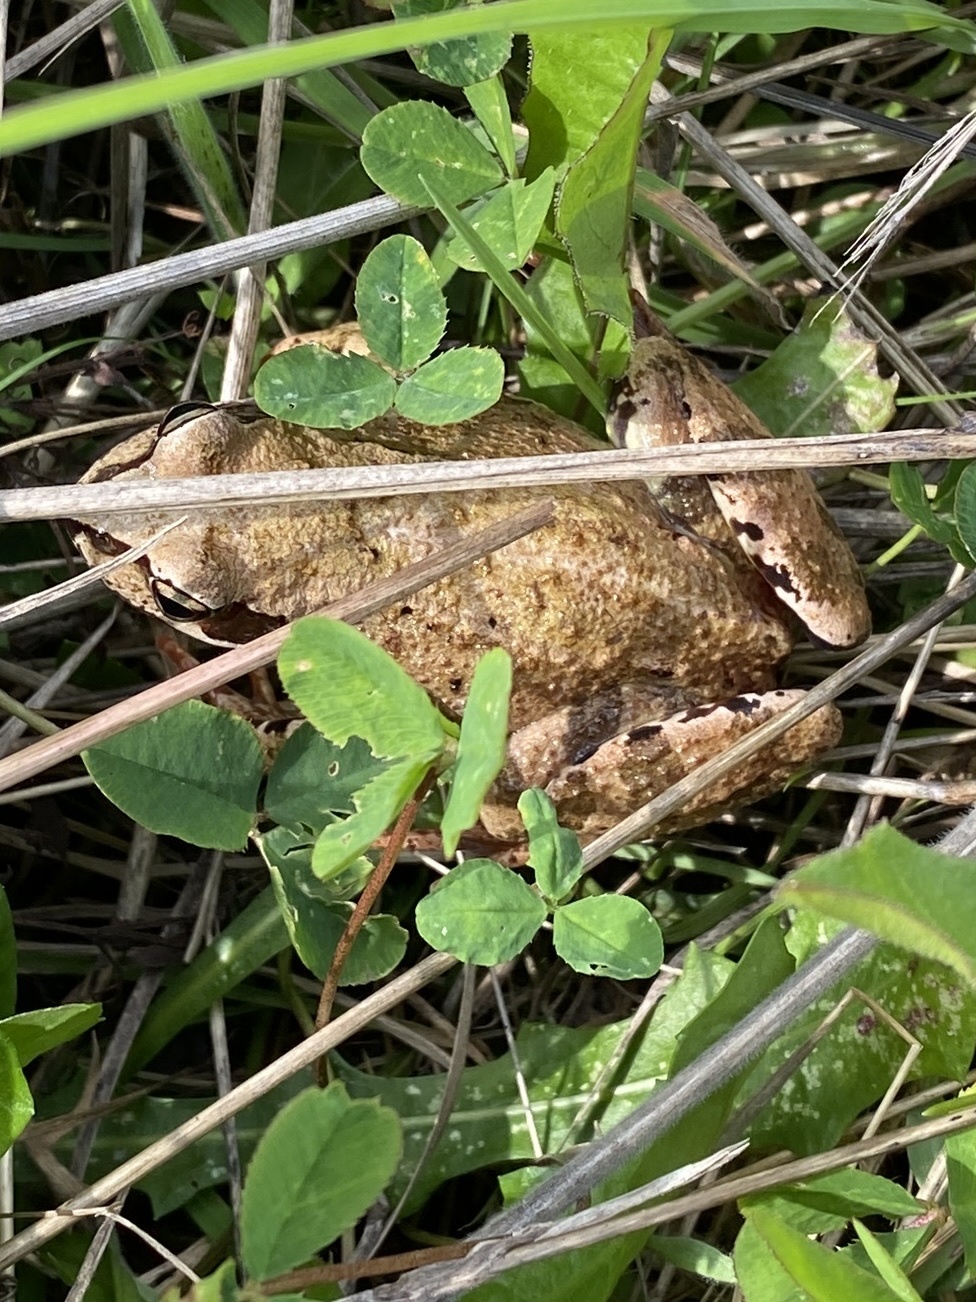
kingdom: Animalia
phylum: Chordata
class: Amphibia
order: Anura
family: Ranidae
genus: Rana
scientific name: Rana temporaria
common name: Common frog
